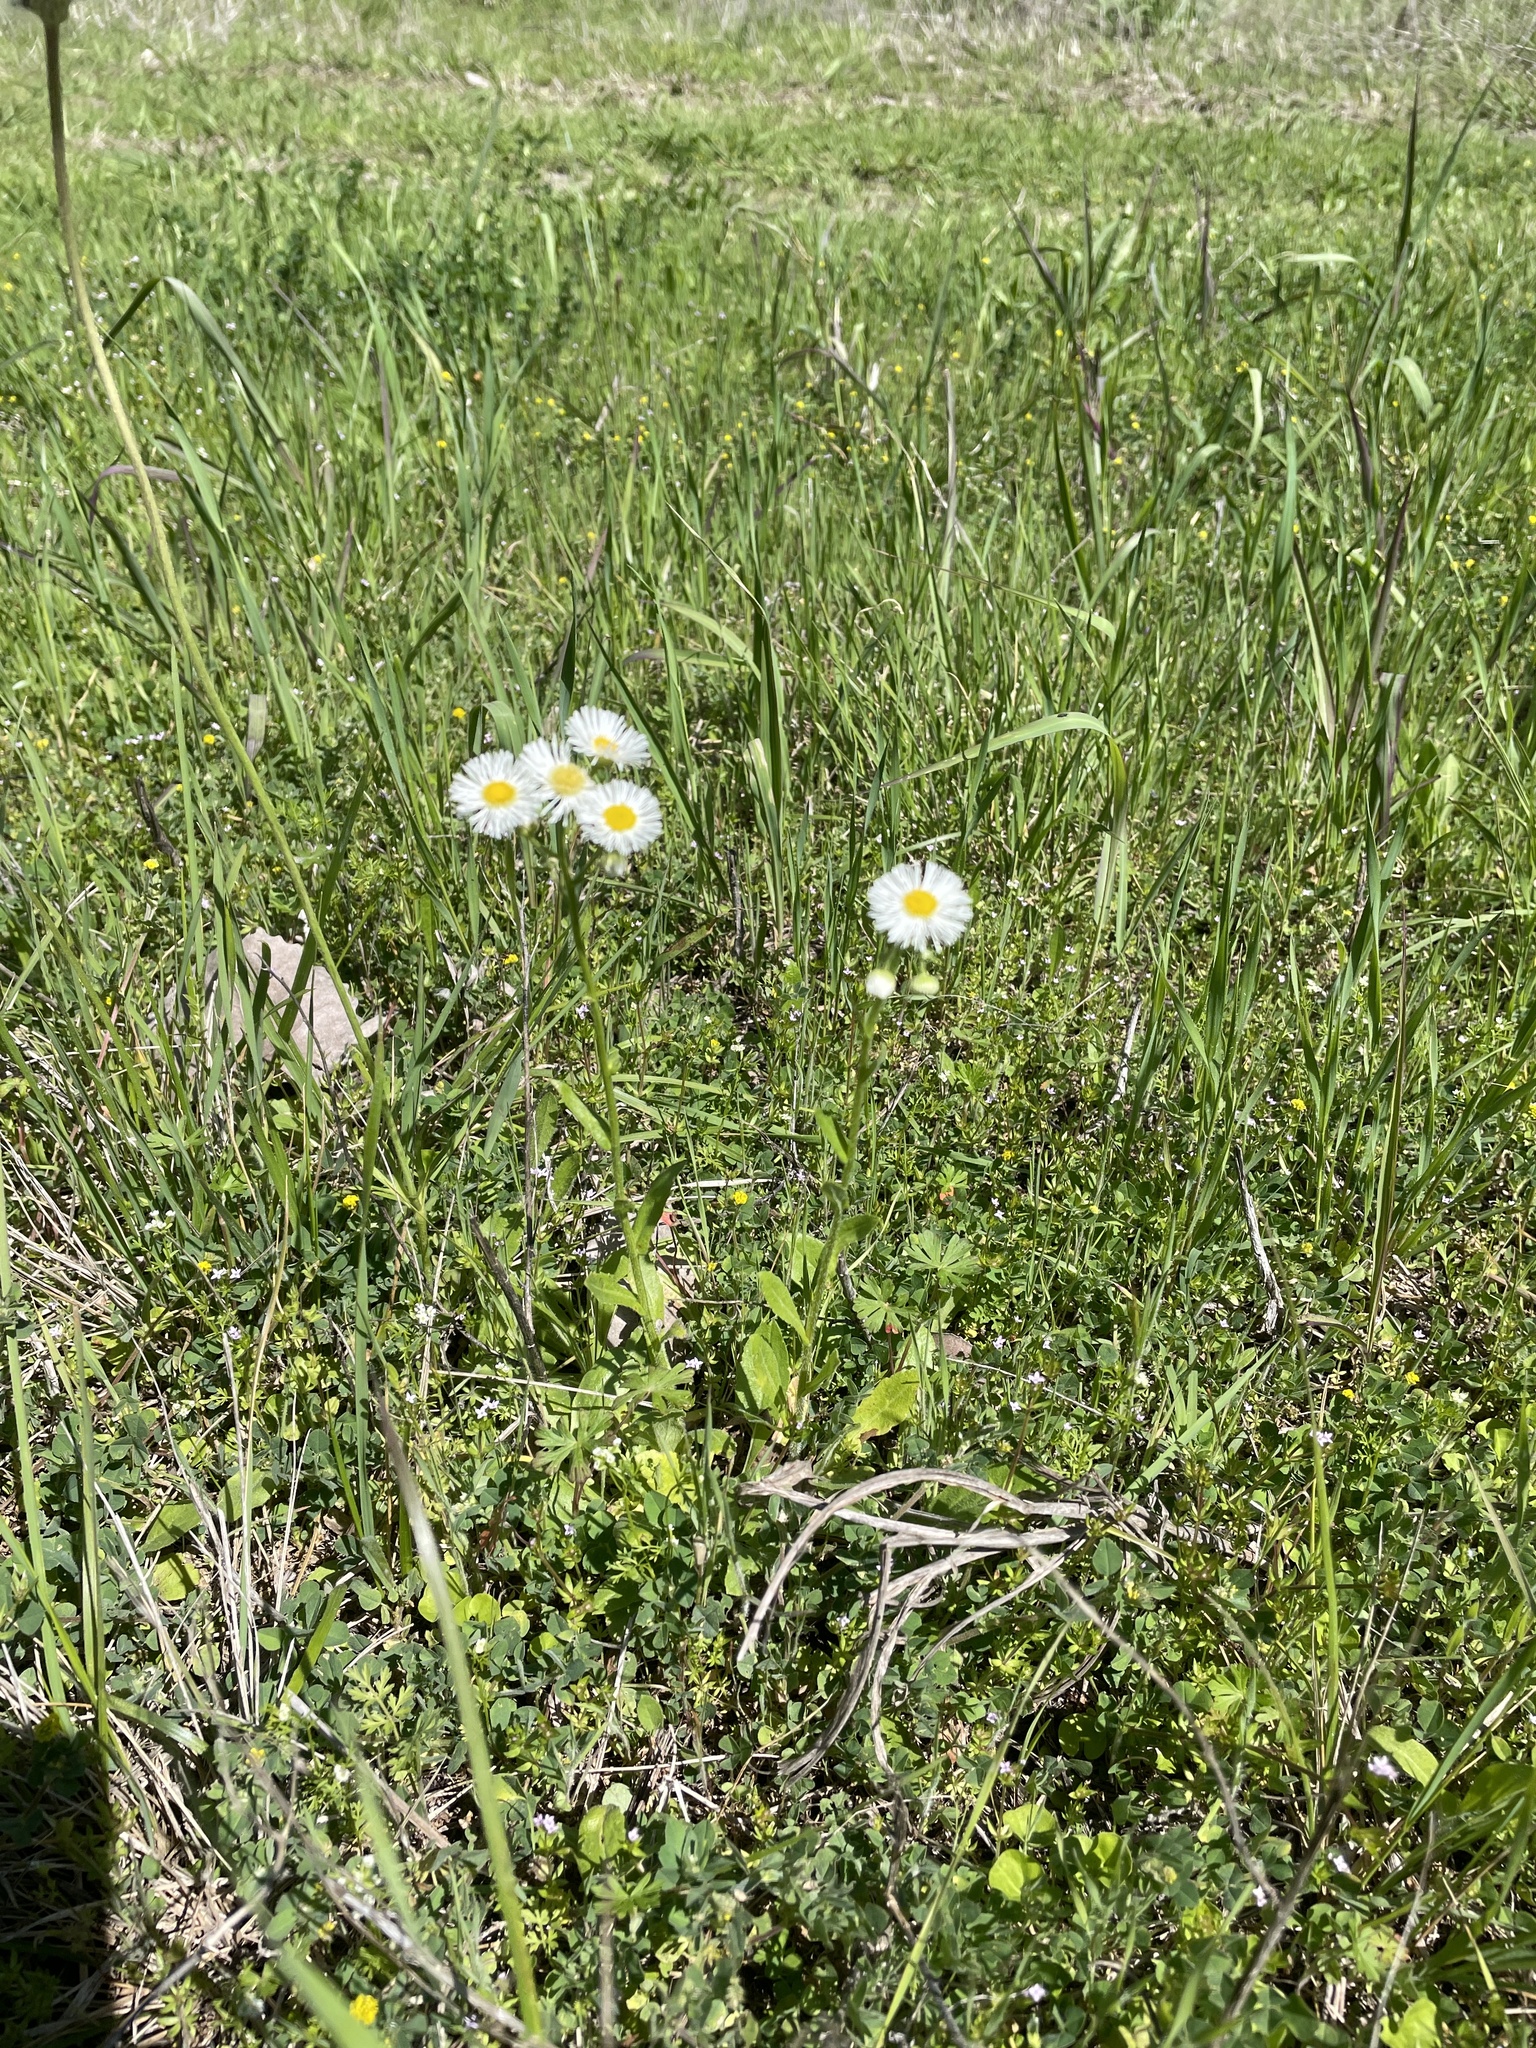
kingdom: Plantae
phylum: Tracheophyta
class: Magnoliopsida
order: Asterales
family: Asteraceae
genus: Erigeron
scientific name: Erigeron philadelphicus
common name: Robin's-plantain
